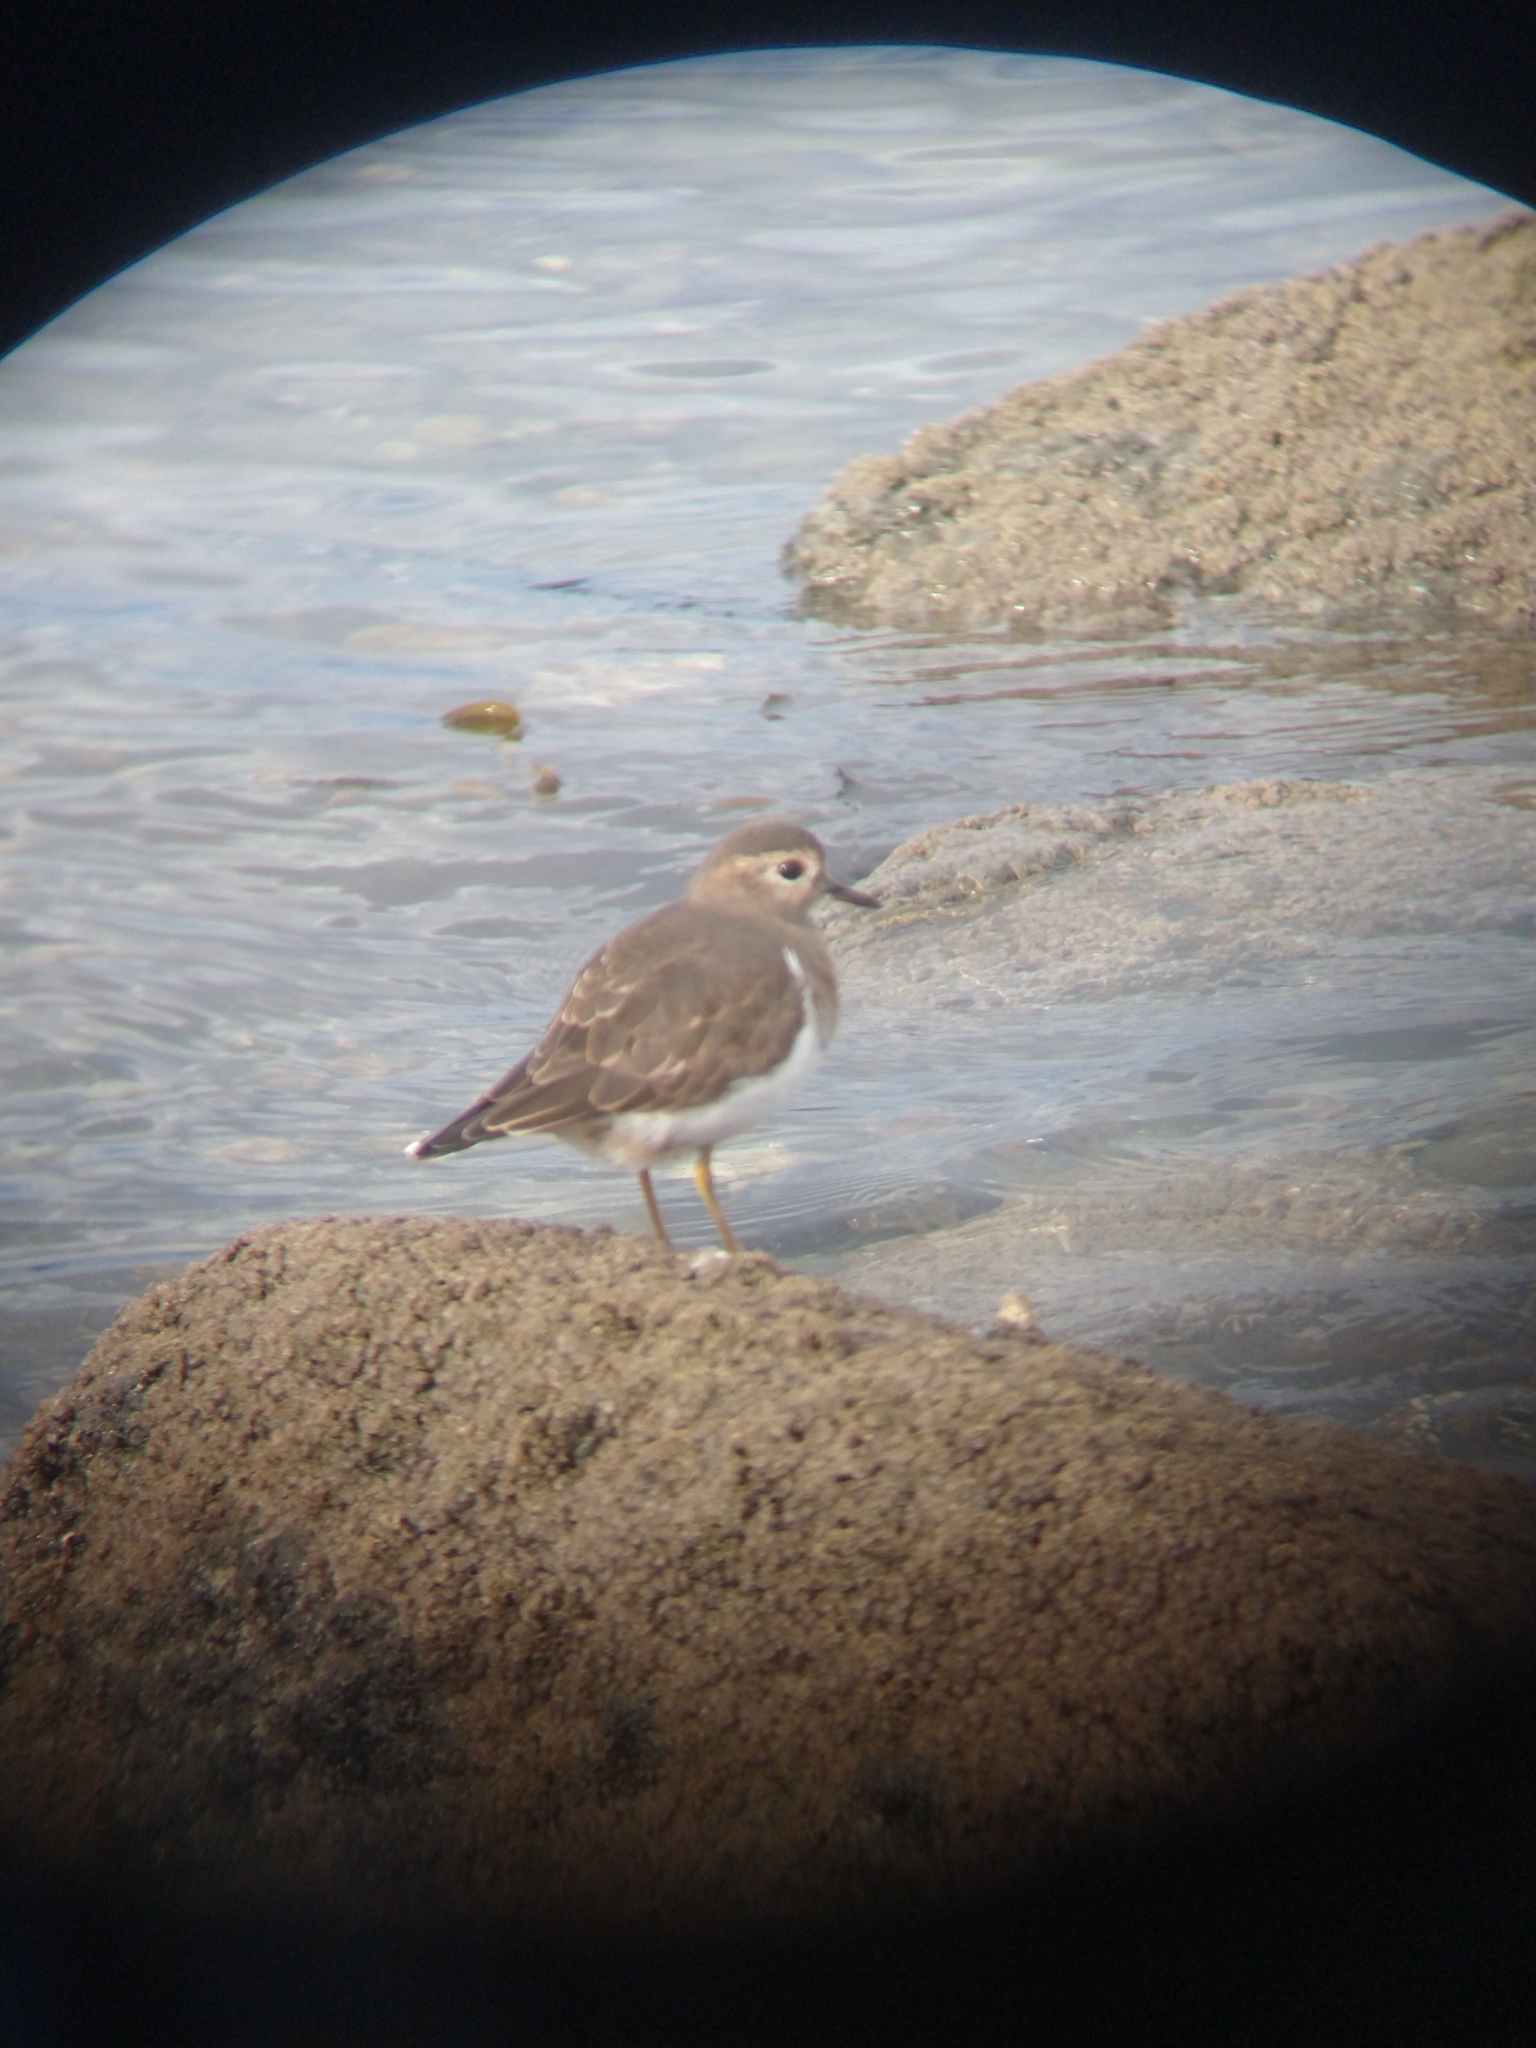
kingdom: Animalia
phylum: Chordata
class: Aves
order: Charadriiformes
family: Charadriidae
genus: Charadrius
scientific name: Charadrius modestus
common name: Rufous-chested plover
